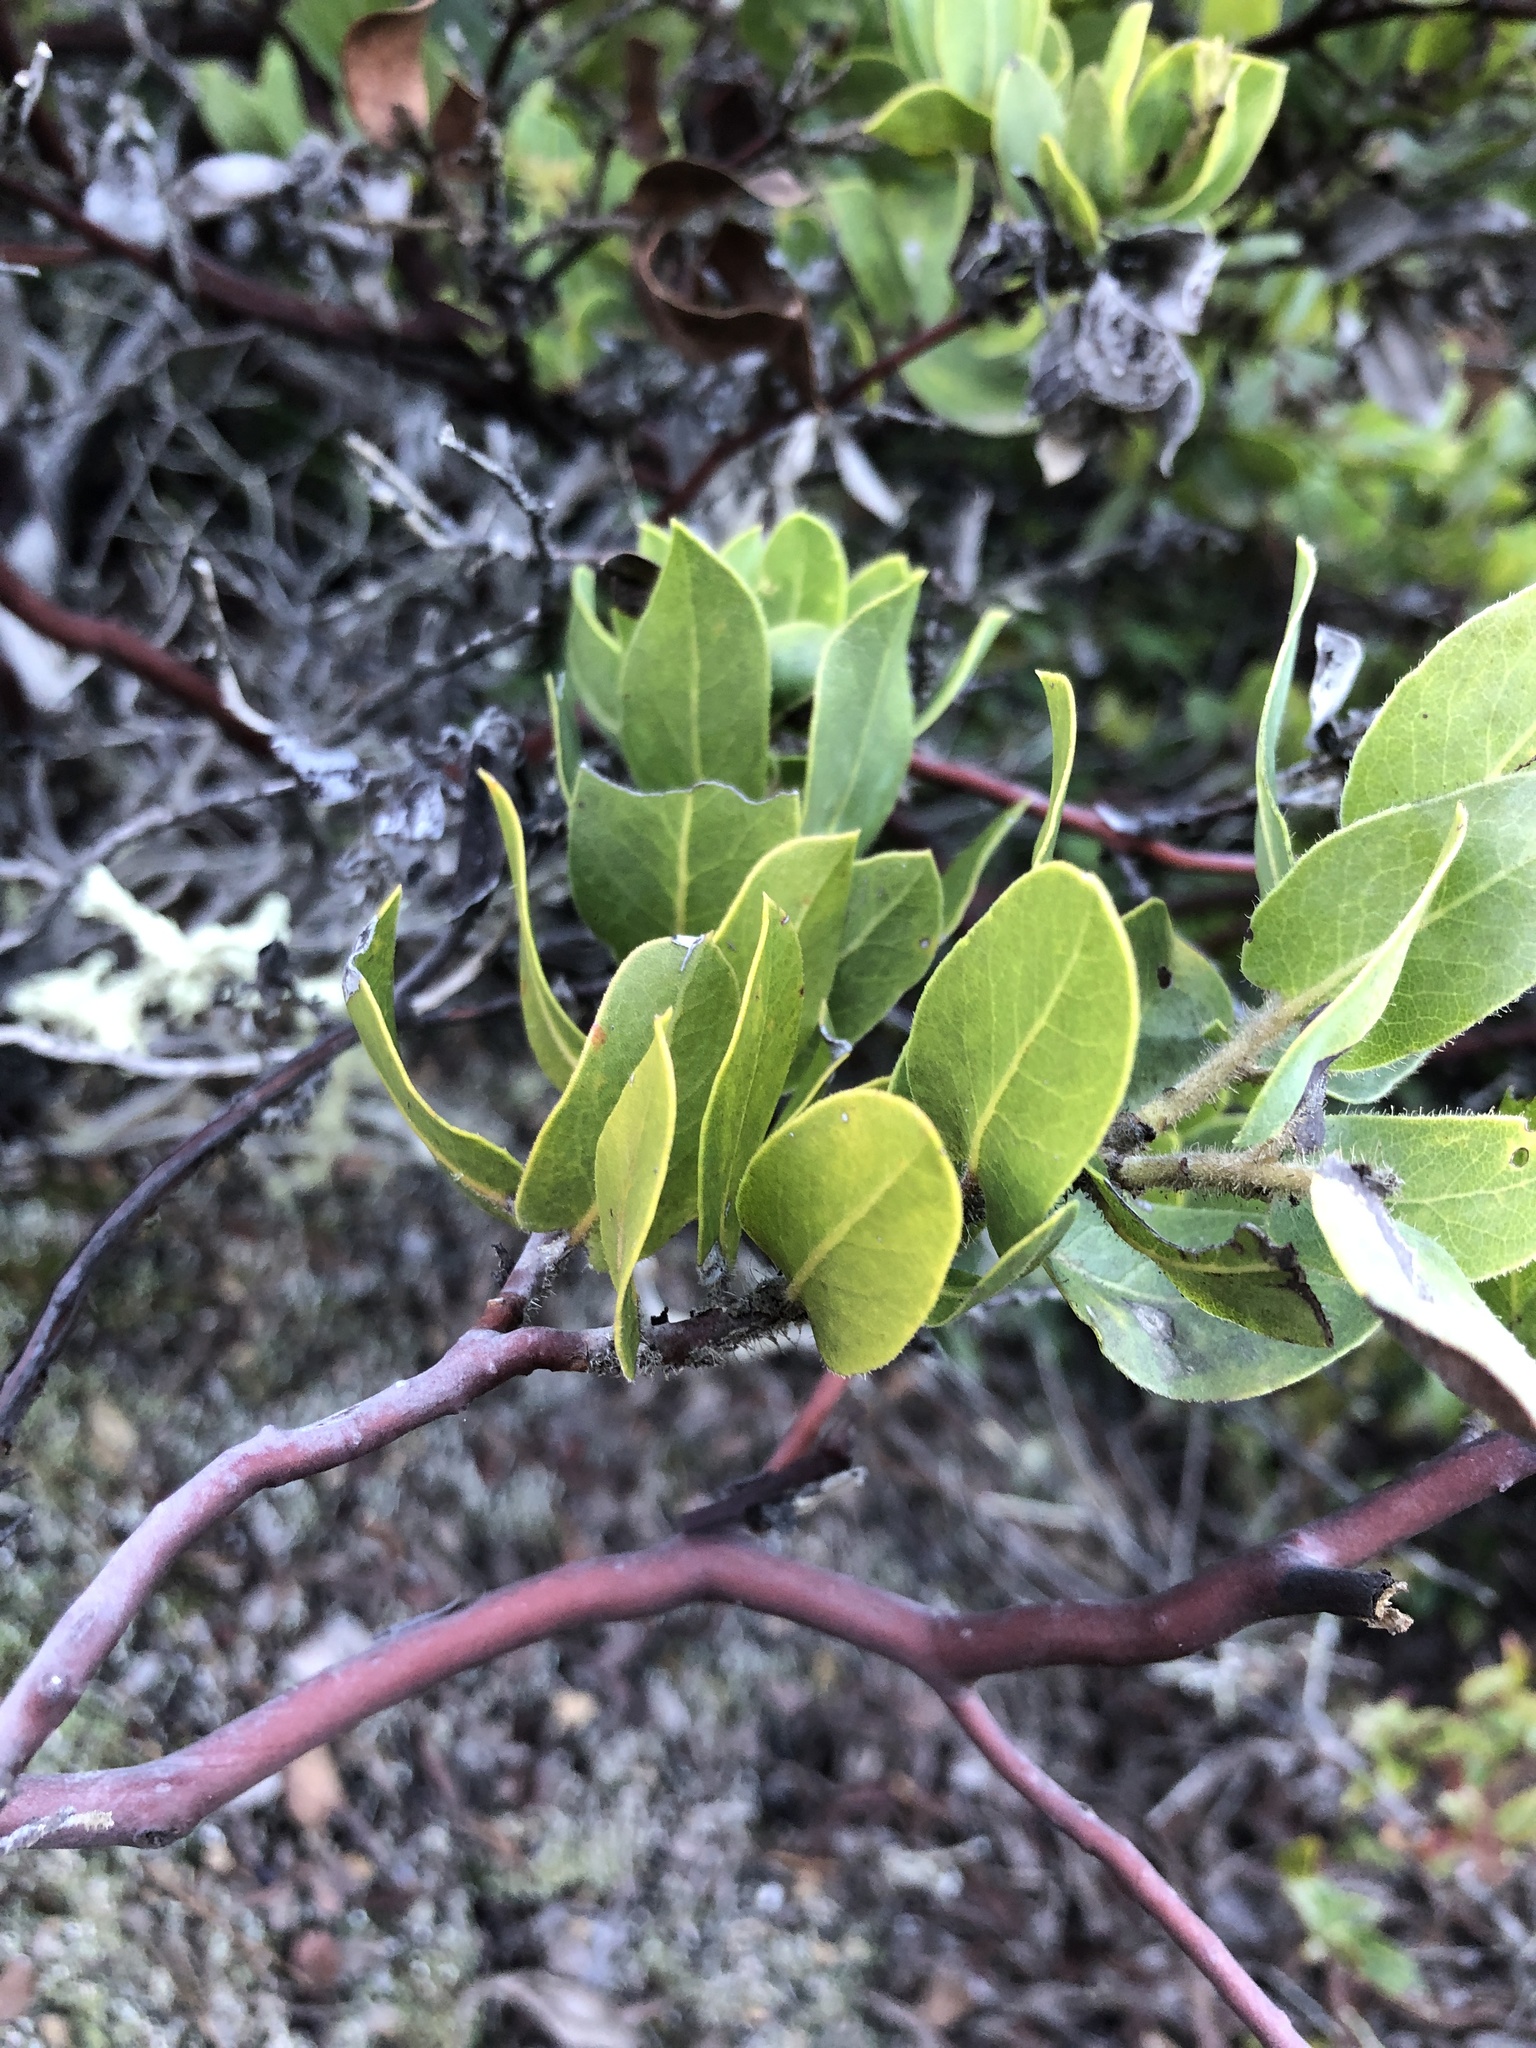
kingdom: Plantae
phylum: Tracheophyta
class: Magnoliopsida
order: Ericales
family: Ericaceae
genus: Arctostaphylos
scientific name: Arctostaphylos montaraensis
